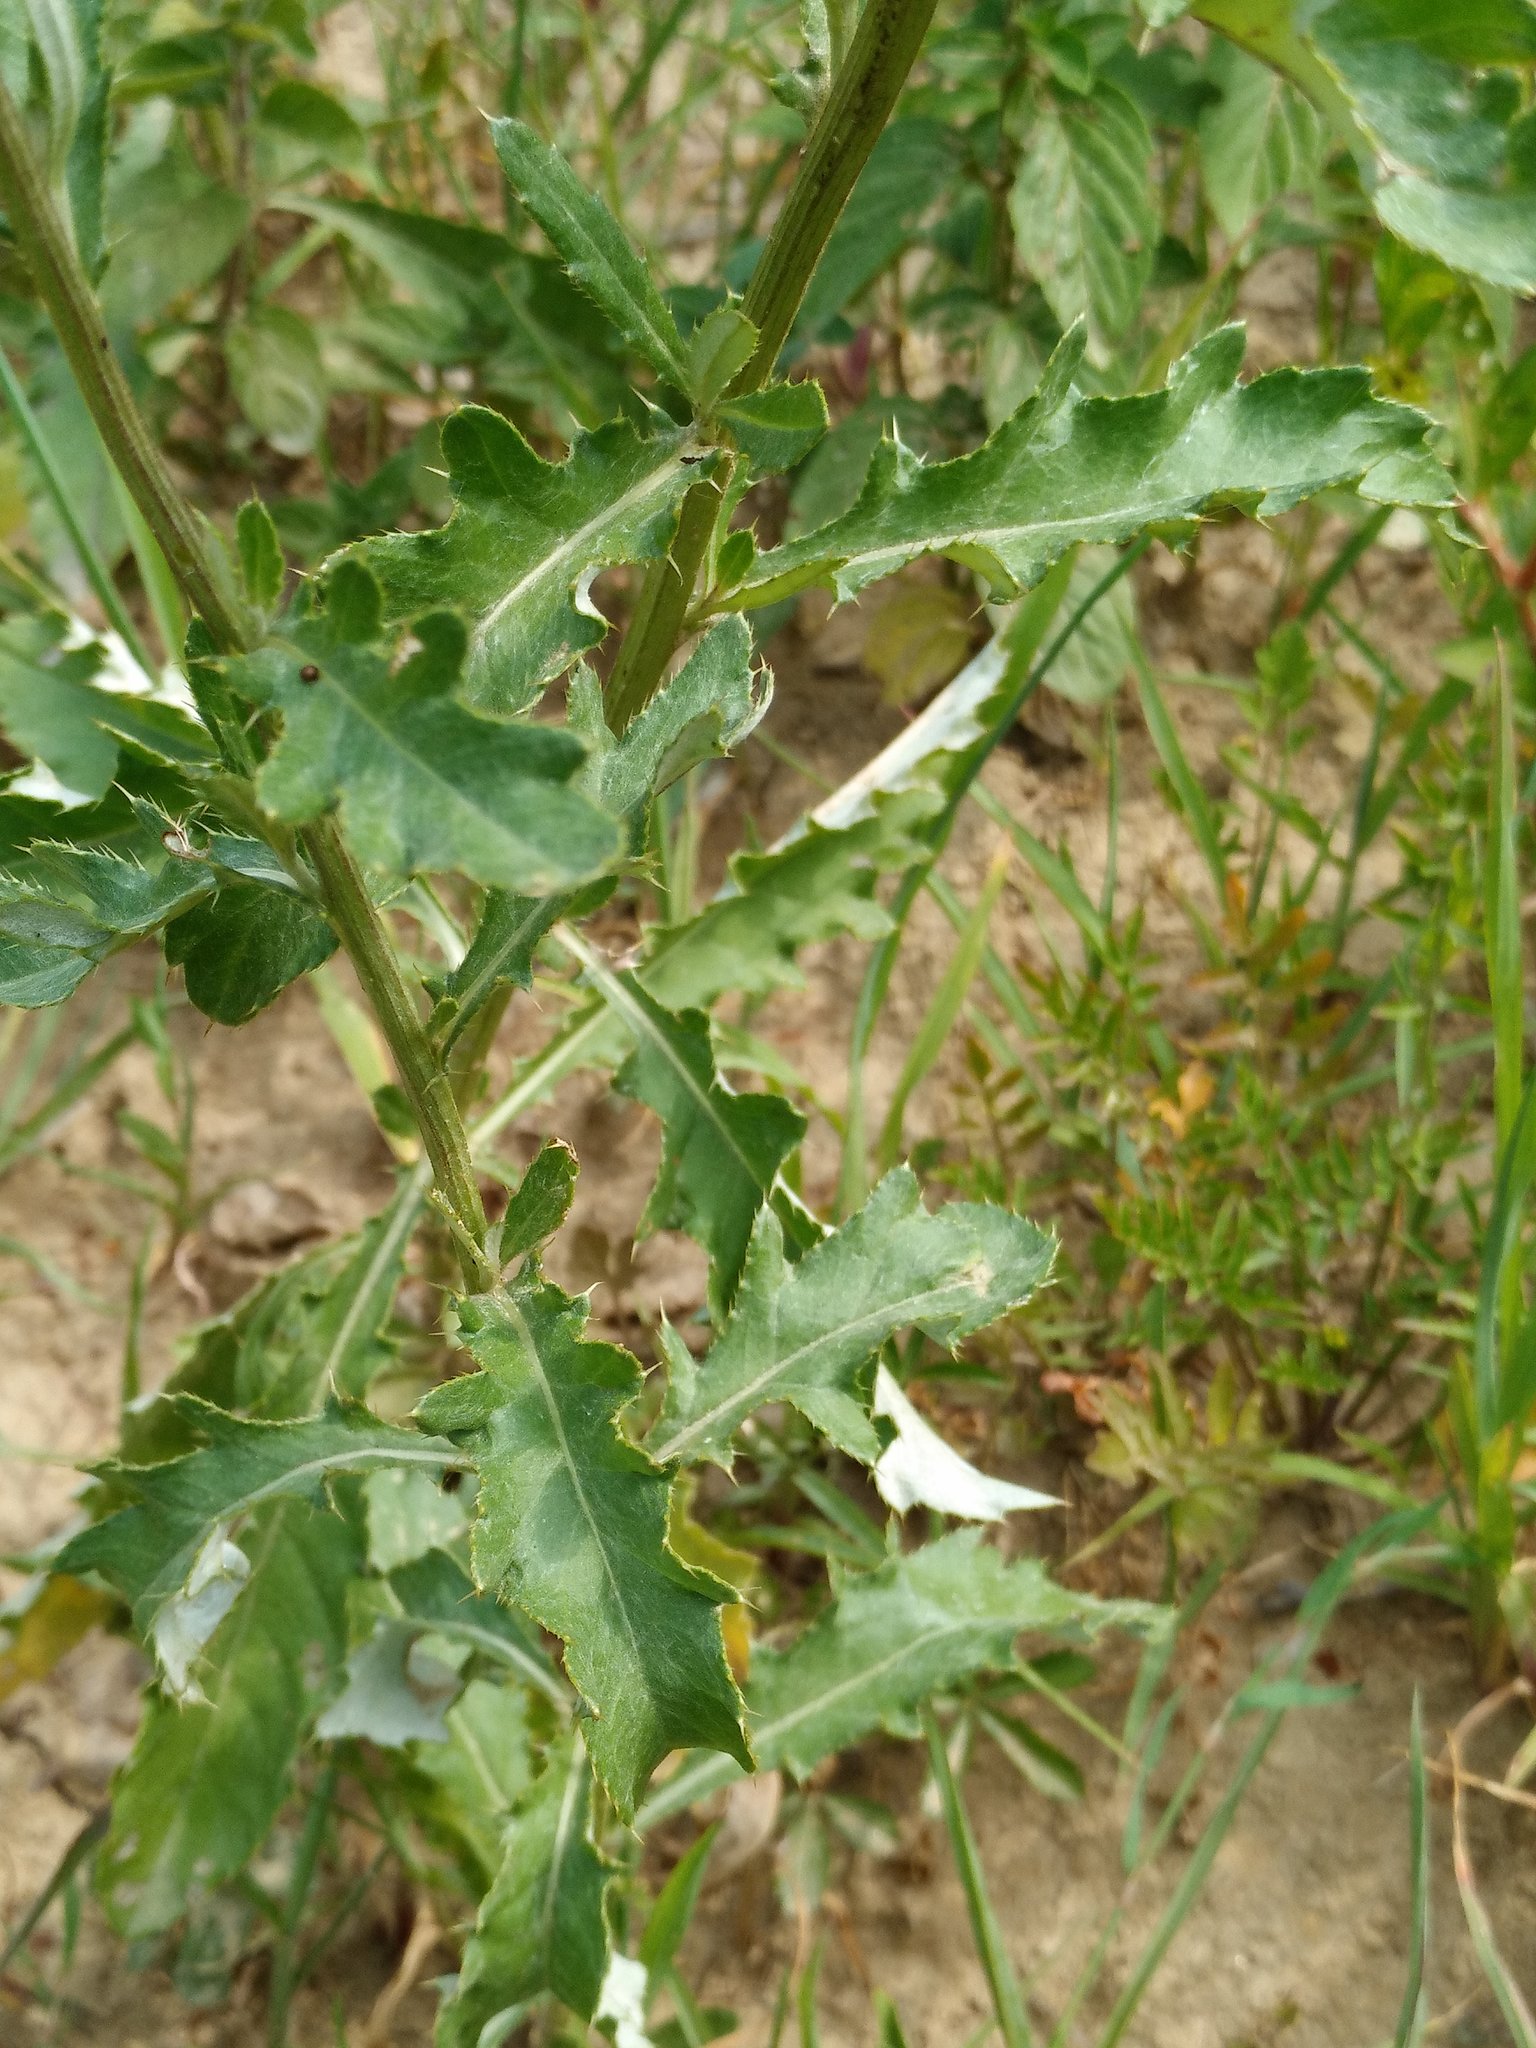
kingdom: Plantae
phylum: Tracheophyta
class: Magnoliopsida
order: Asterales
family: Asteraceae
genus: Cirsium
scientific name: Cirsium arvense
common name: Creeping thistle
